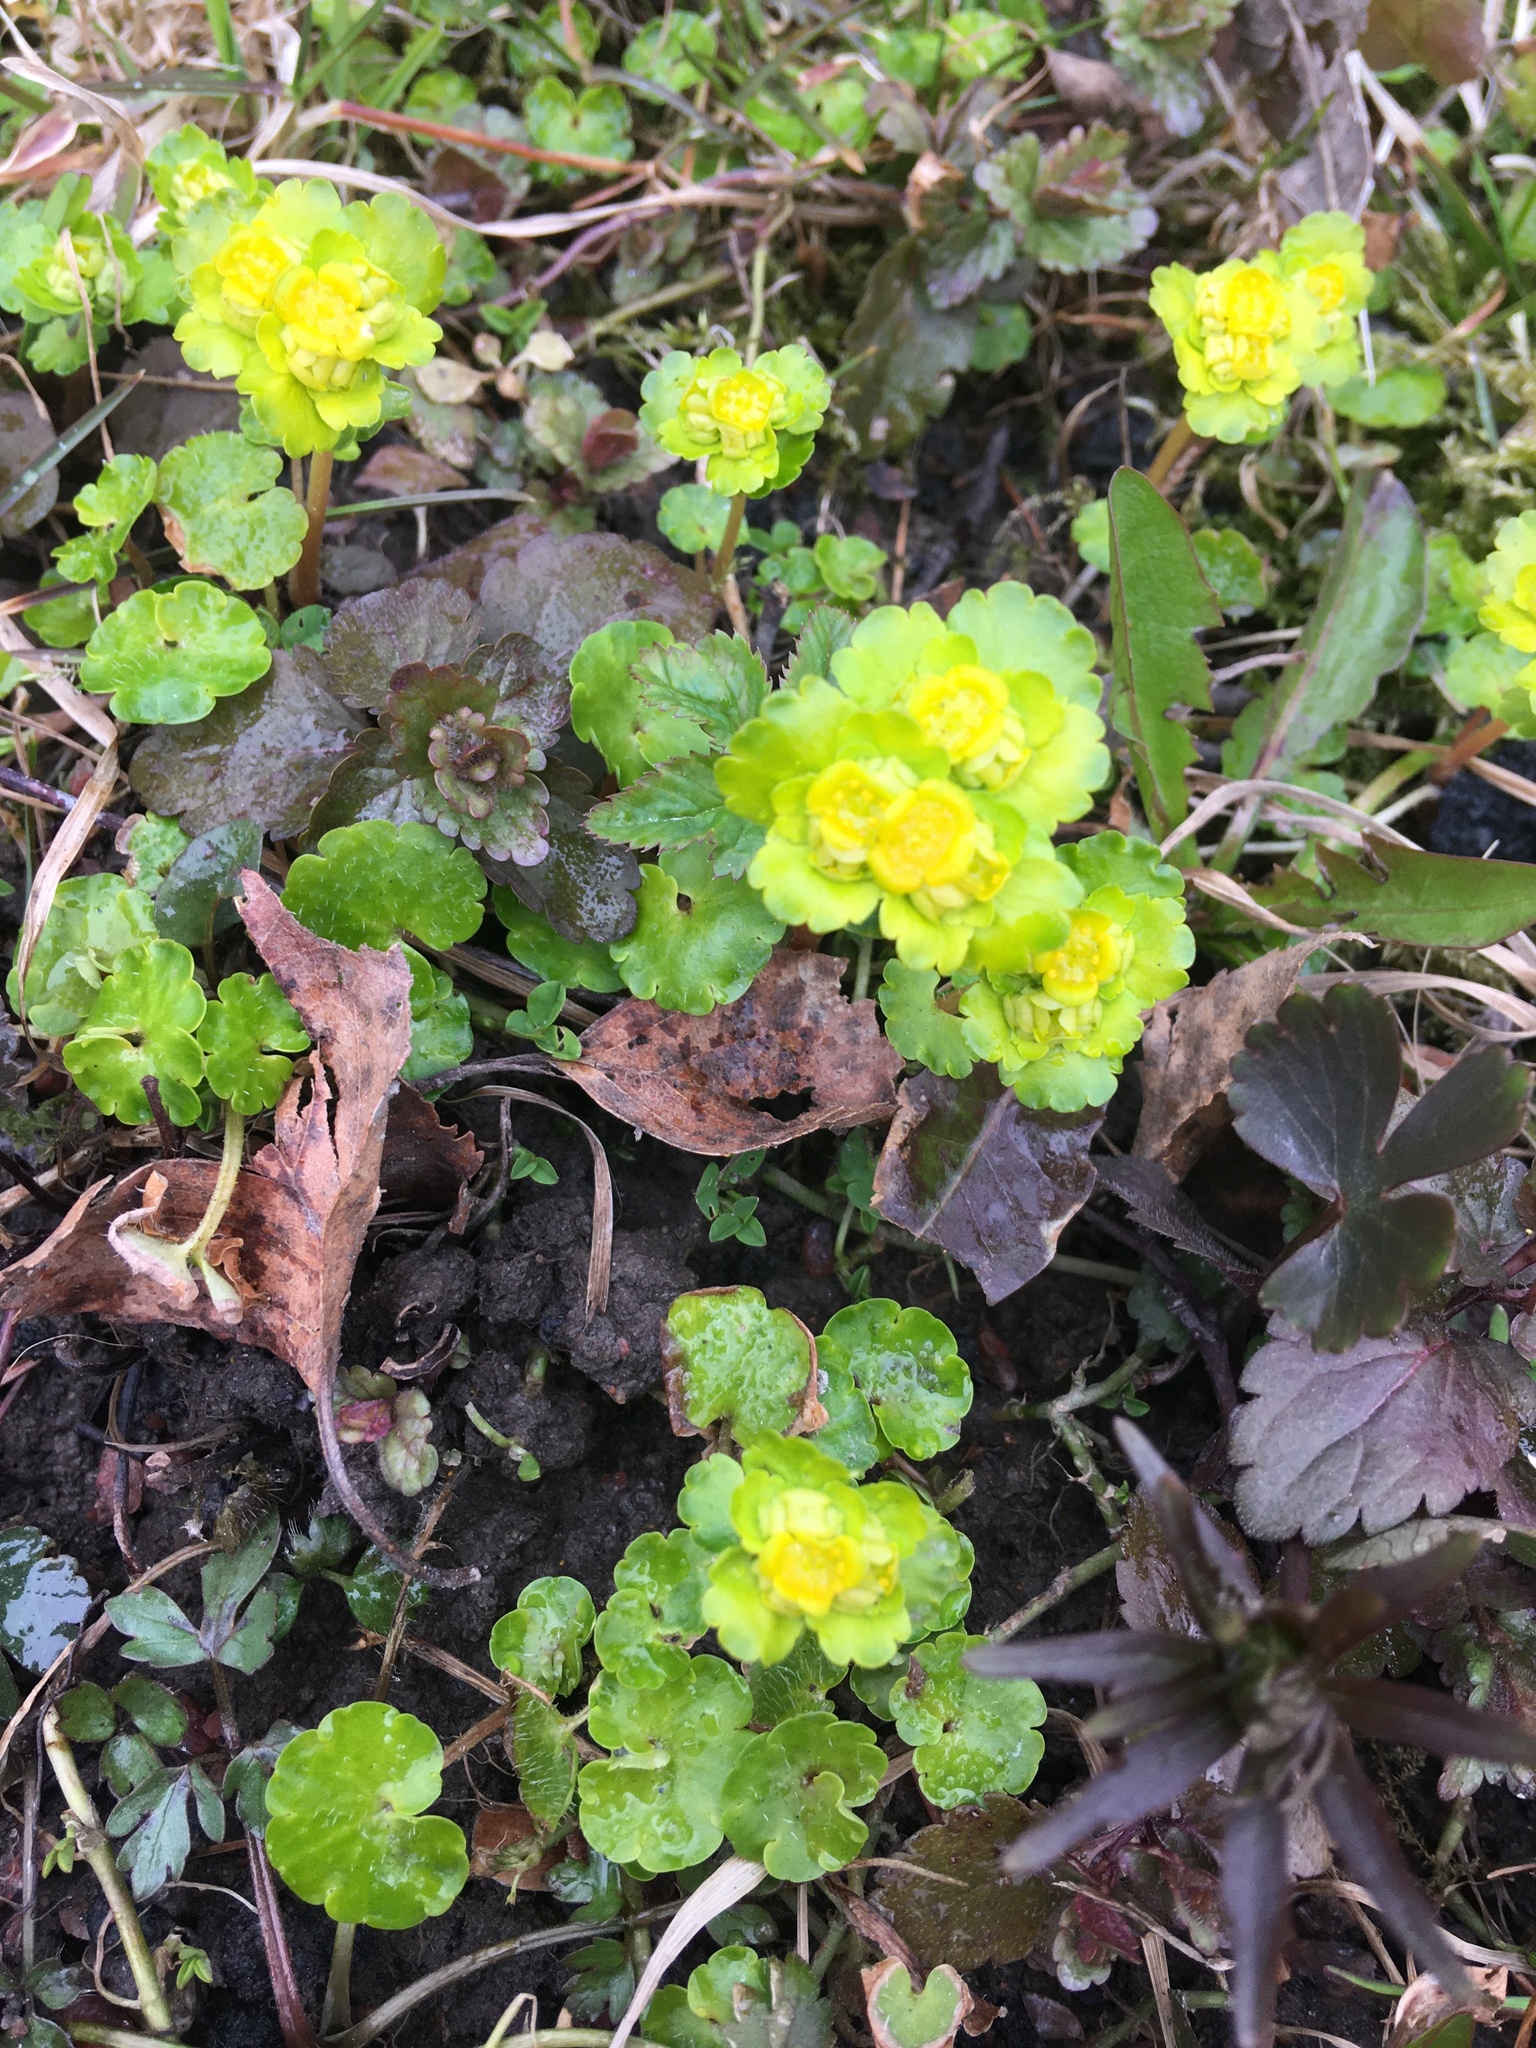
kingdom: Plantae
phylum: Tracheophyta
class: Magnoliopsida
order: Saxifragales
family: Saxifragaceae
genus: Chrysosplenium
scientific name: Chrysosplenium alternifolium
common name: Alternate-leaved golden-saxifrage
